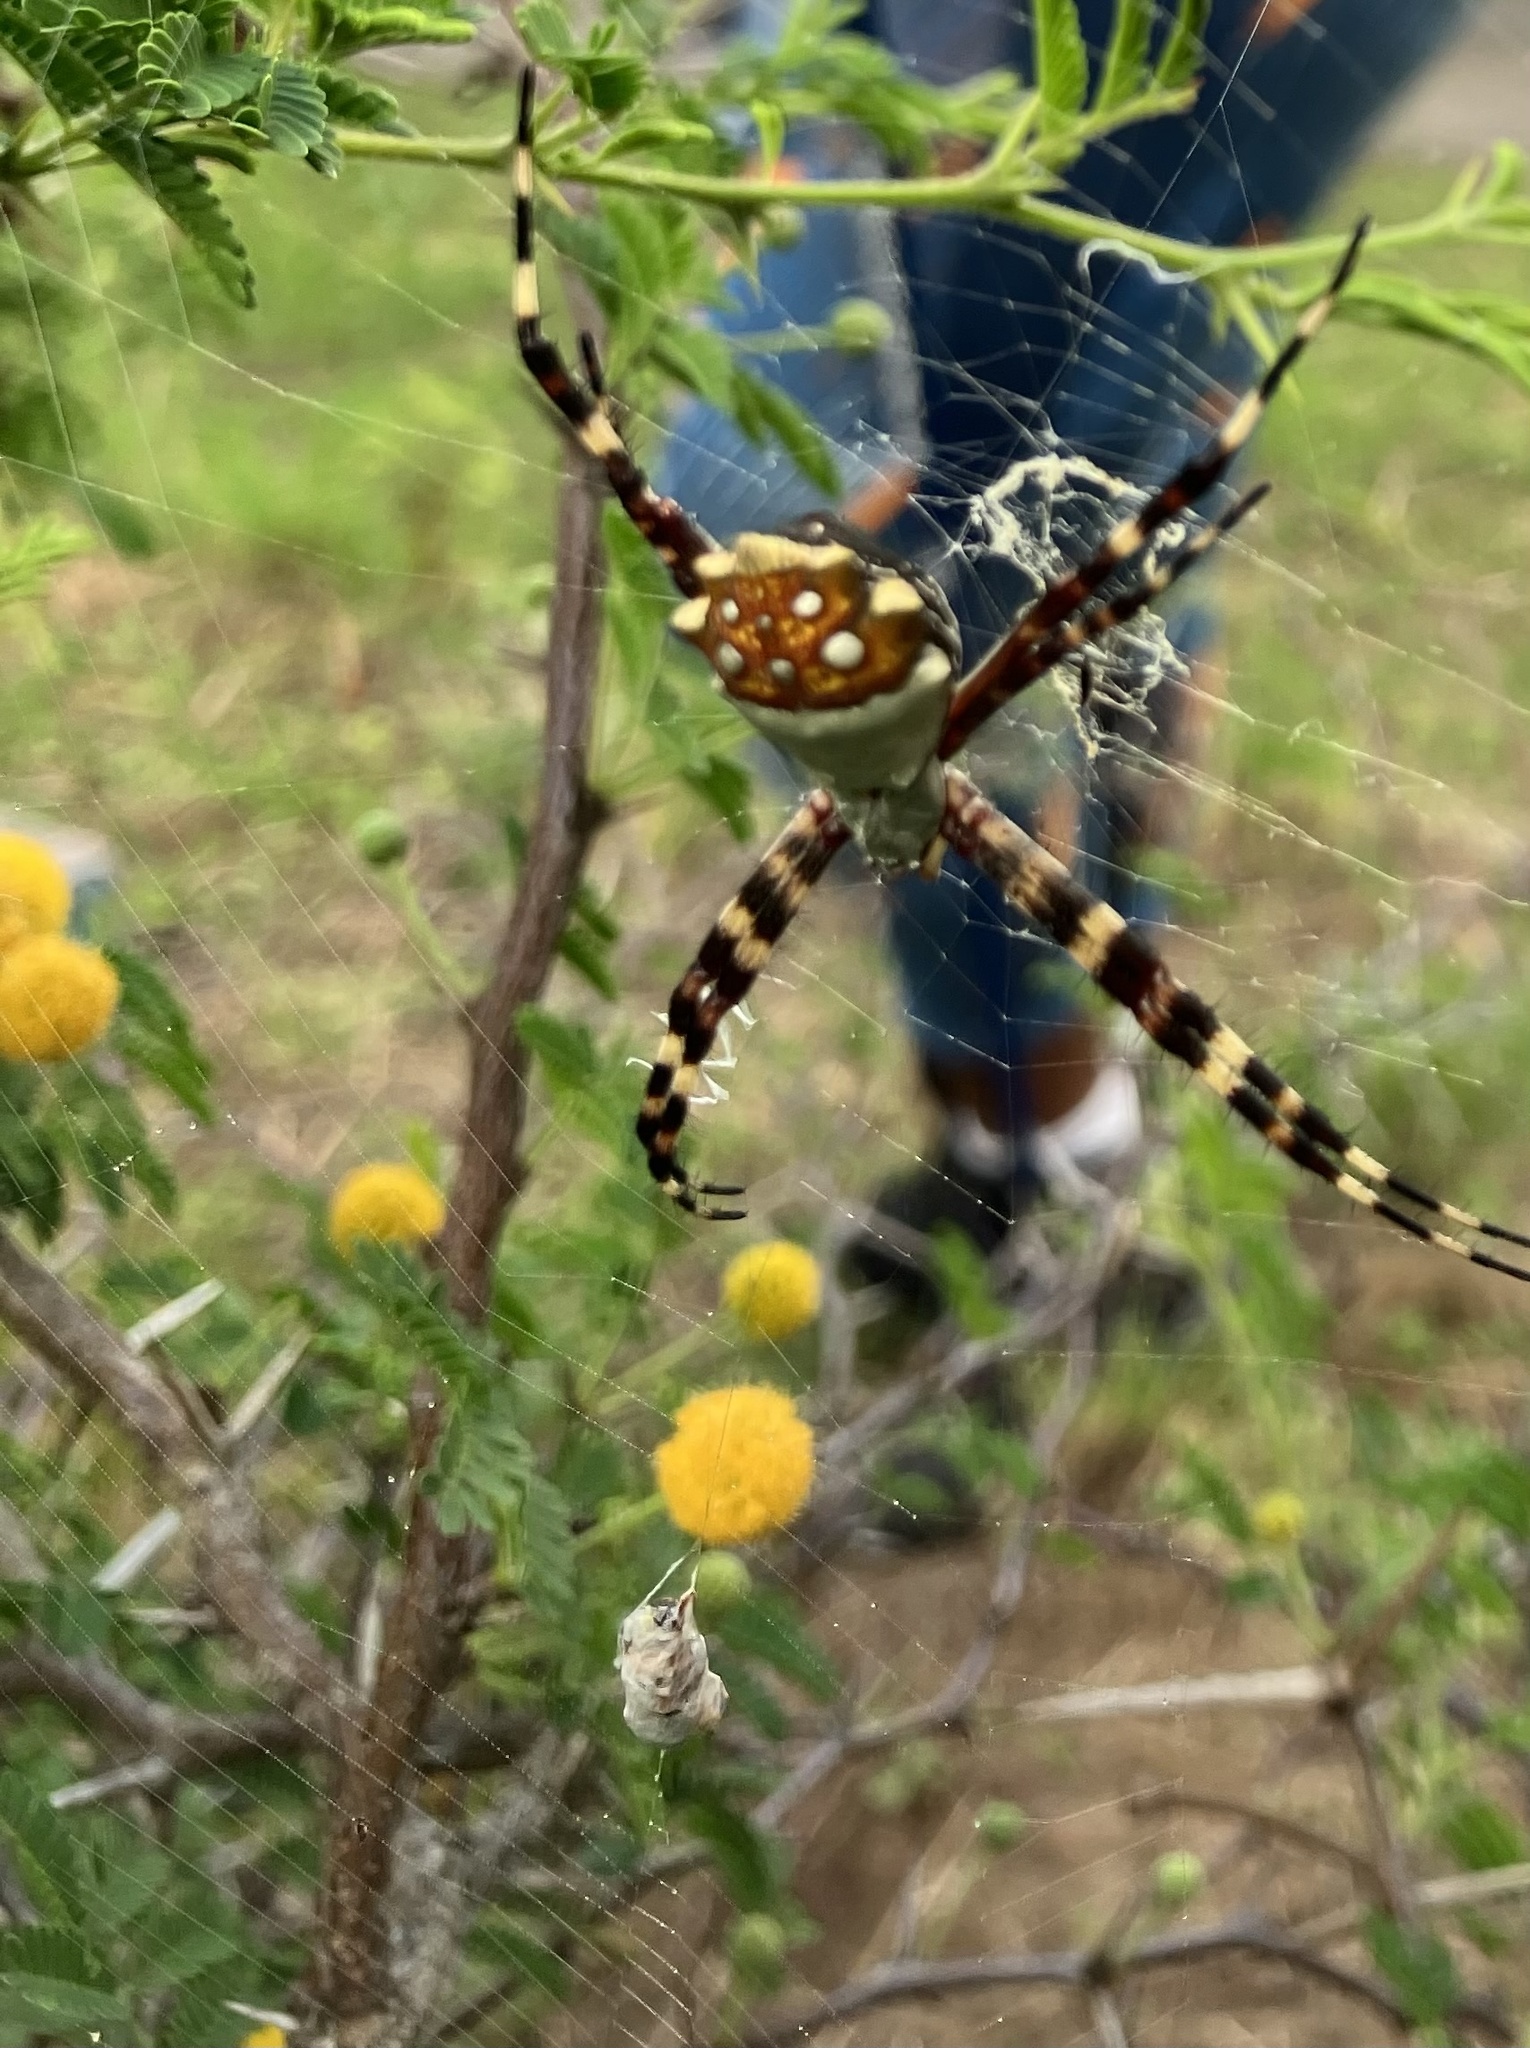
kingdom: Animalia
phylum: Arthropoda
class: Arachnida
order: Araneae
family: Araneidae
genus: Argiope
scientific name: Argiope argentata
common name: Orb weavers
